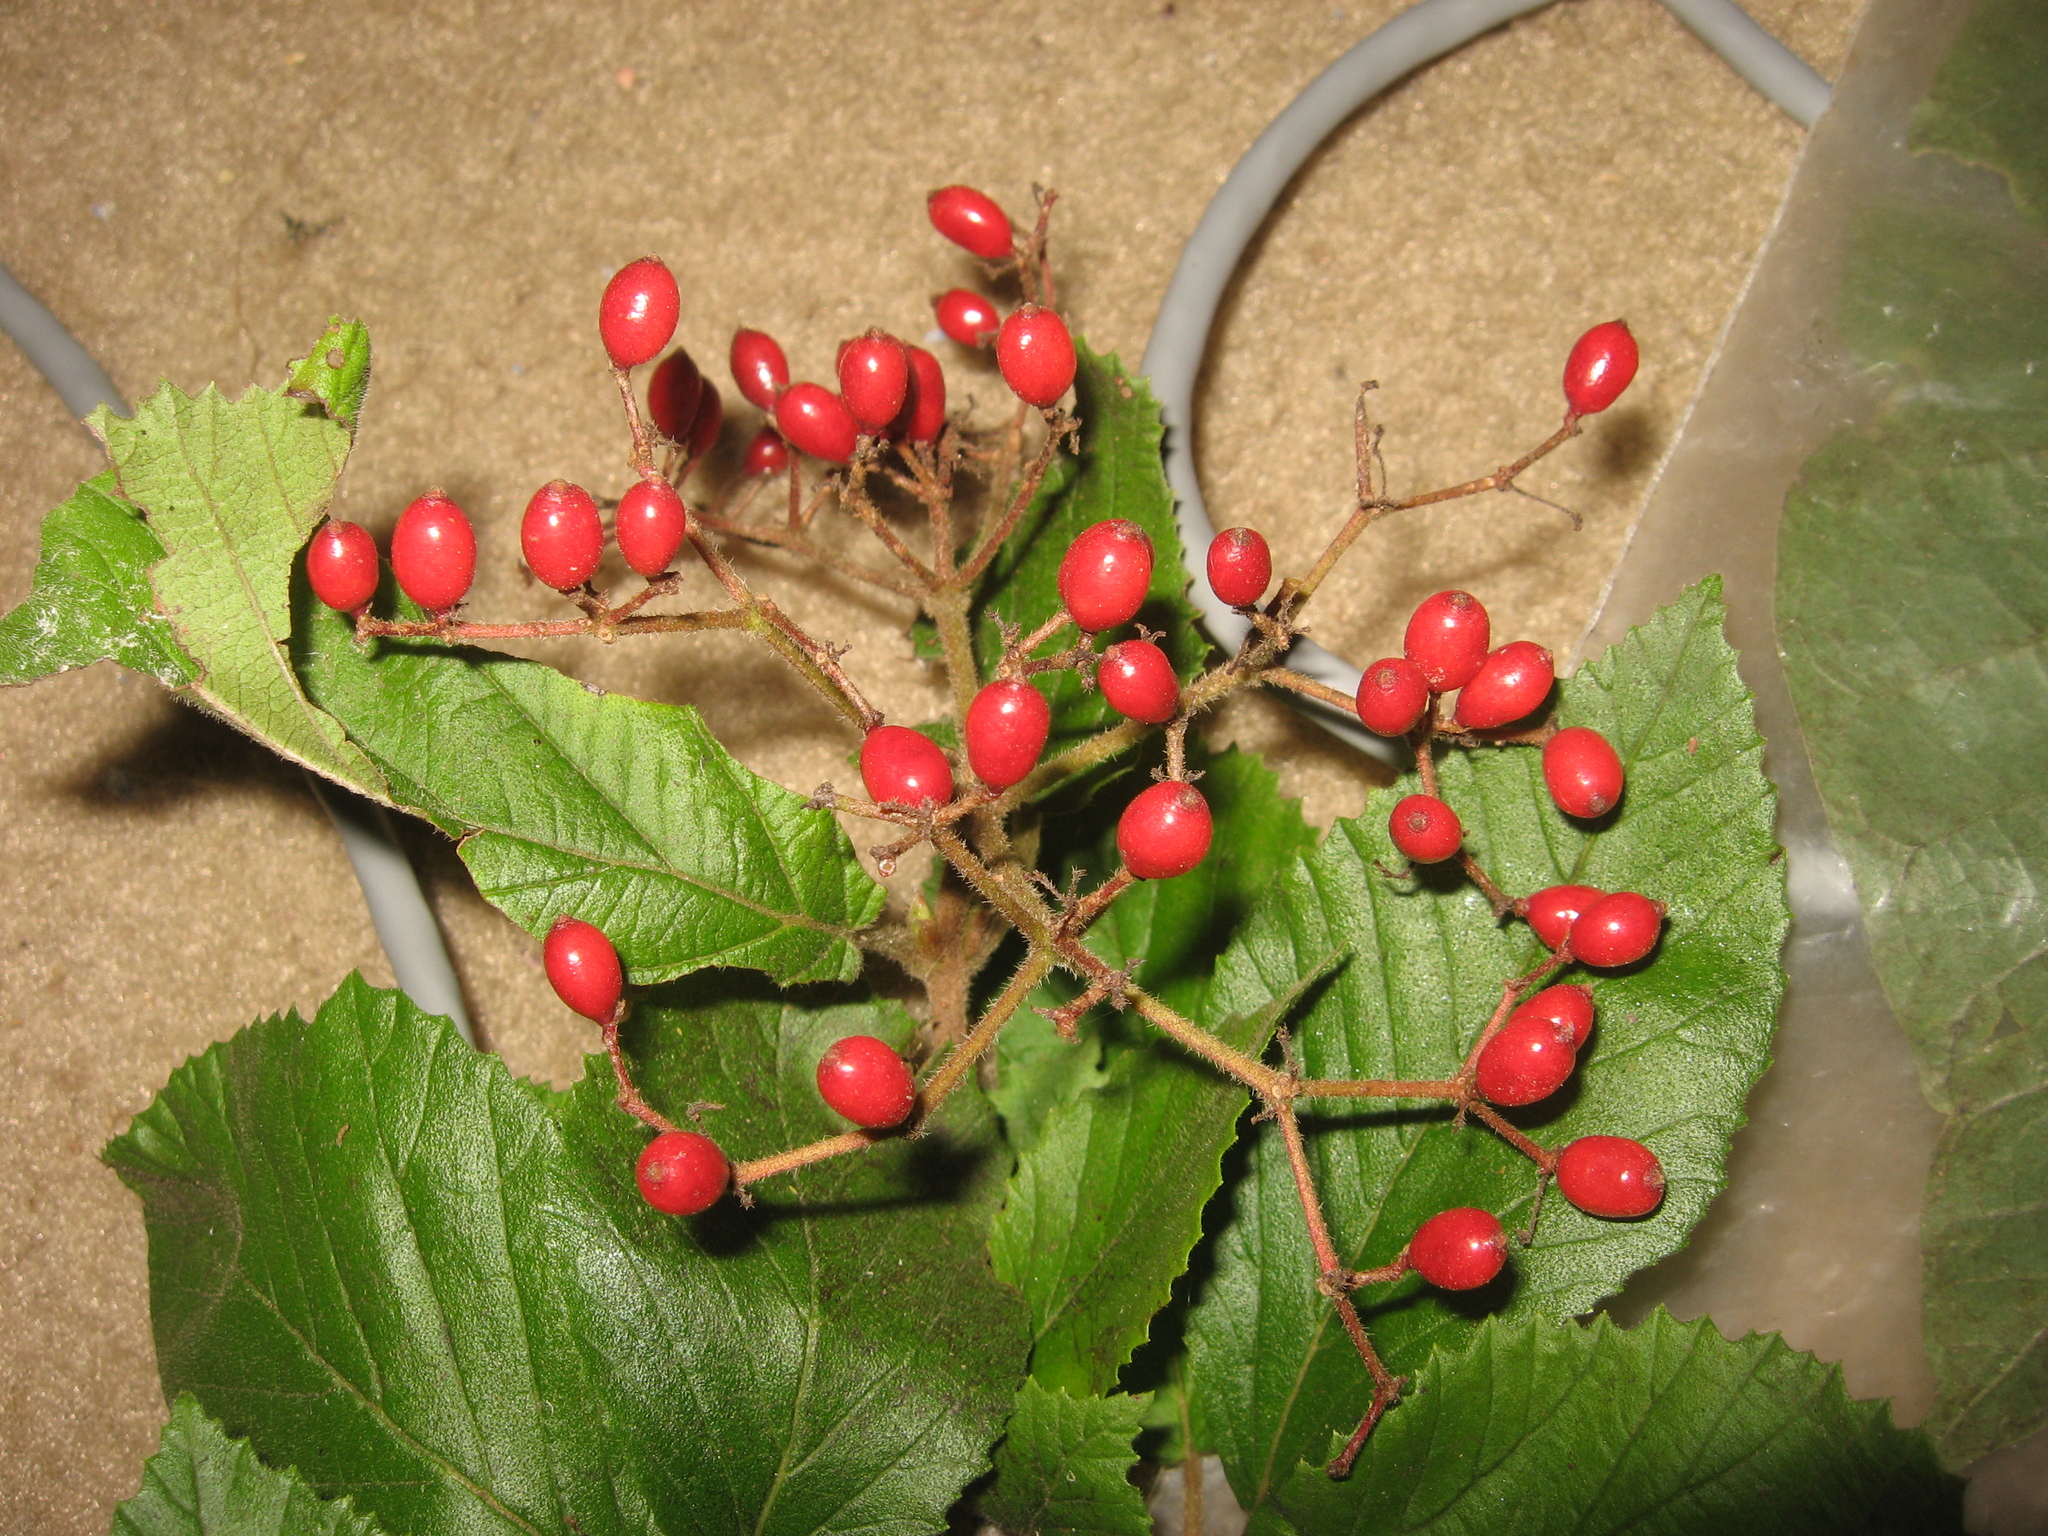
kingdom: Plantae
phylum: Tracheophyta
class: Magnoliopsida
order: Dipsacales
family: Viburnaceae
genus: Viburnum
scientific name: Viburnum dilatatum
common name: Linden arrowwood
